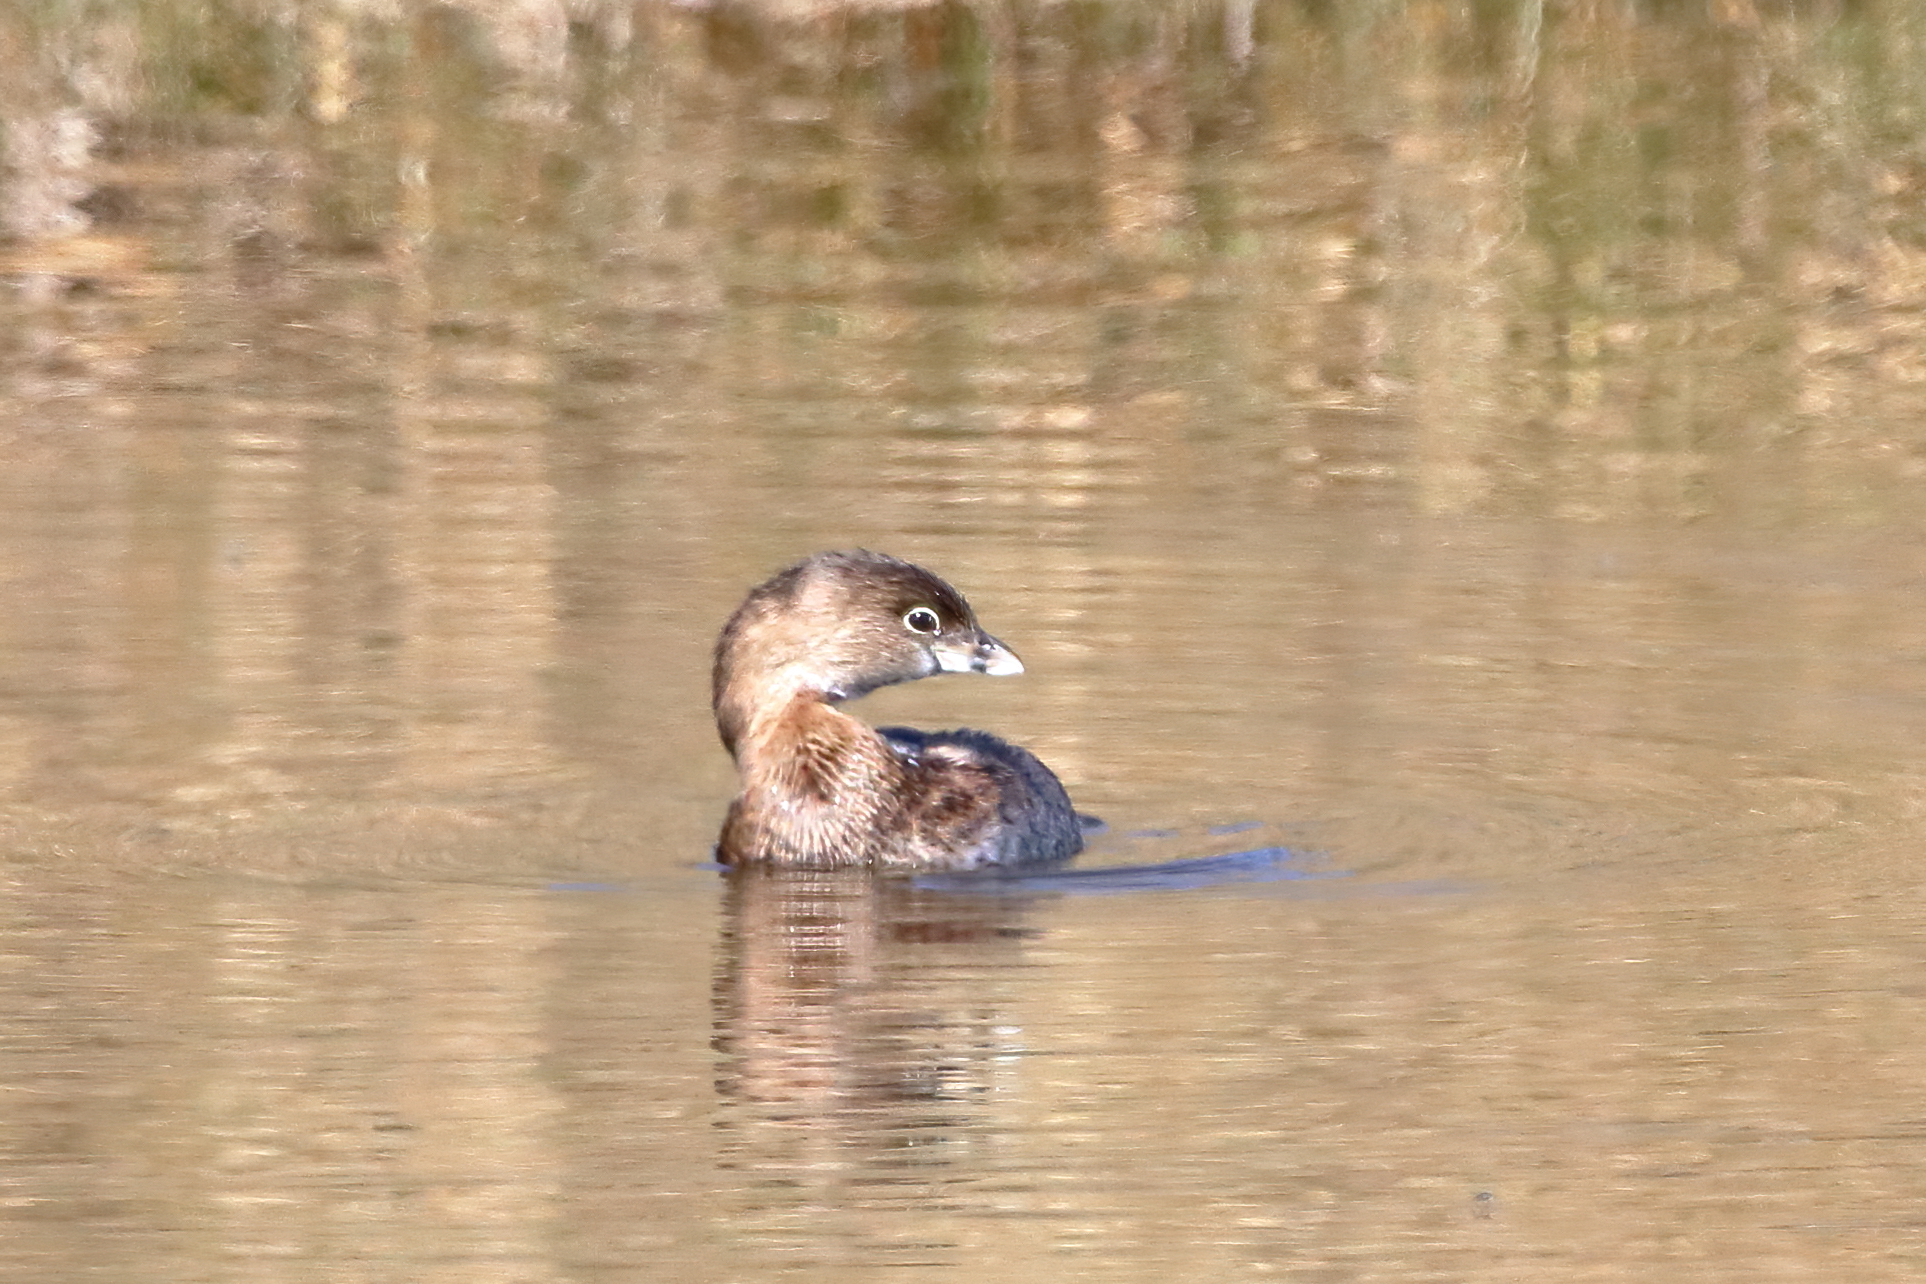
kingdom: Animalia
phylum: Chordata
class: Aves
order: Podicipediformes
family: Podicipedidae
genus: Podilymbus
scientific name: Podilymbus podiceps
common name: Pied-billed grebe
